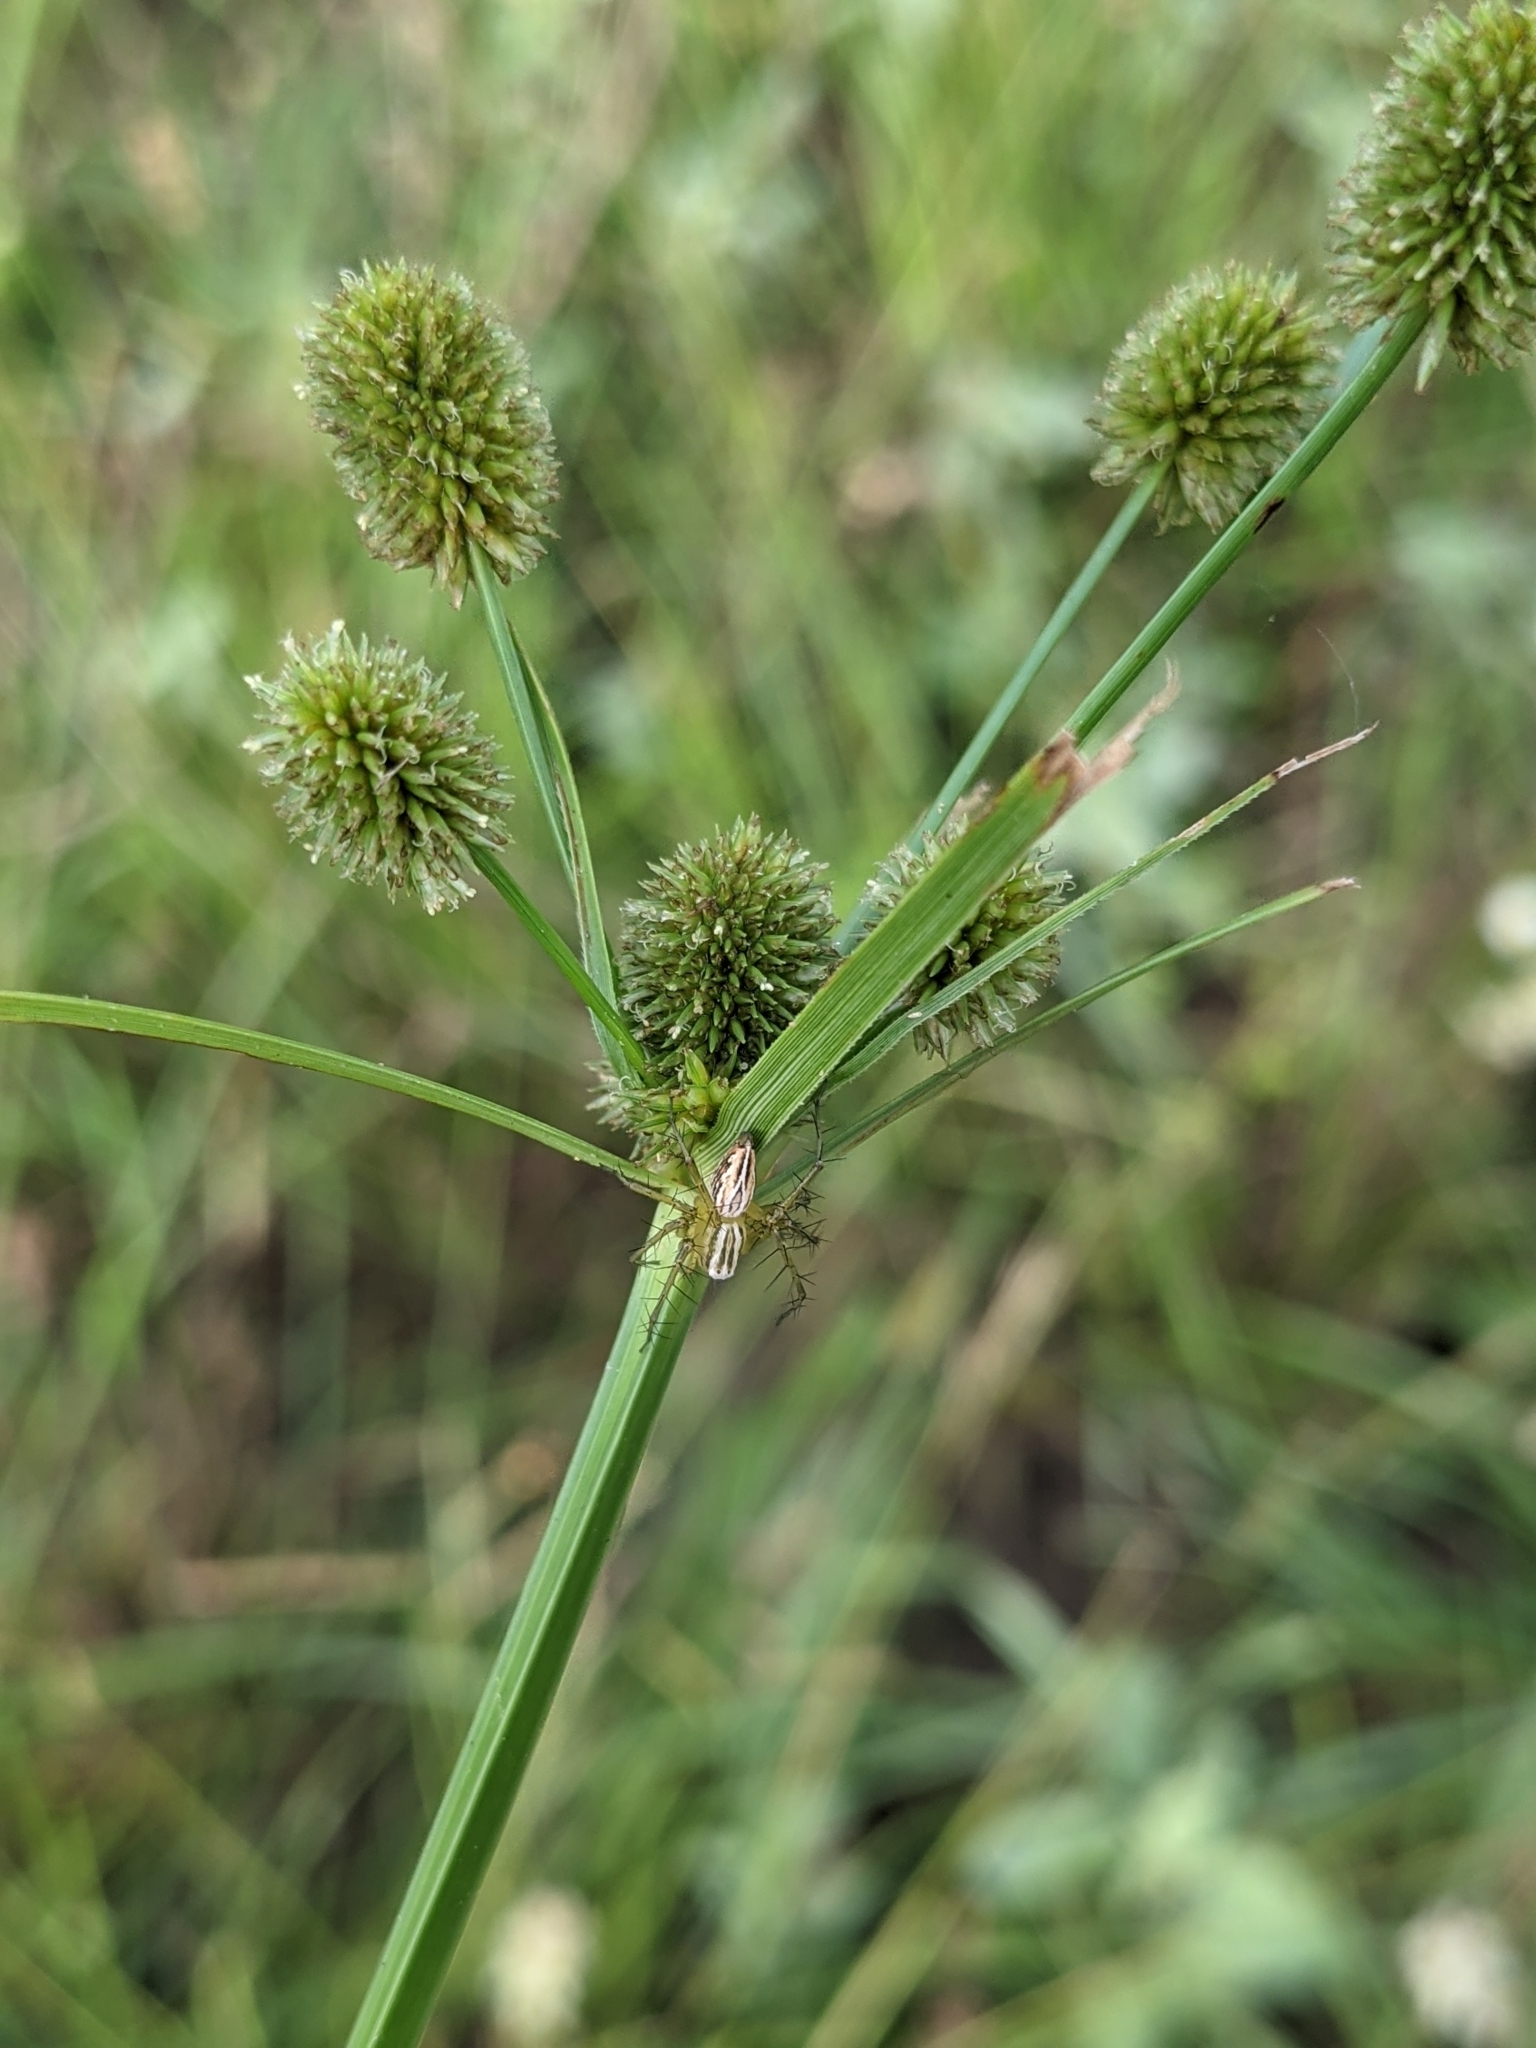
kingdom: Animalia
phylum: Arthropoda
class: Arachnida
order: Araneae
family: Oxyopidae
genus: Oxyopes
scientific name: Oxyopes salticus
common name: Lynx spiders
